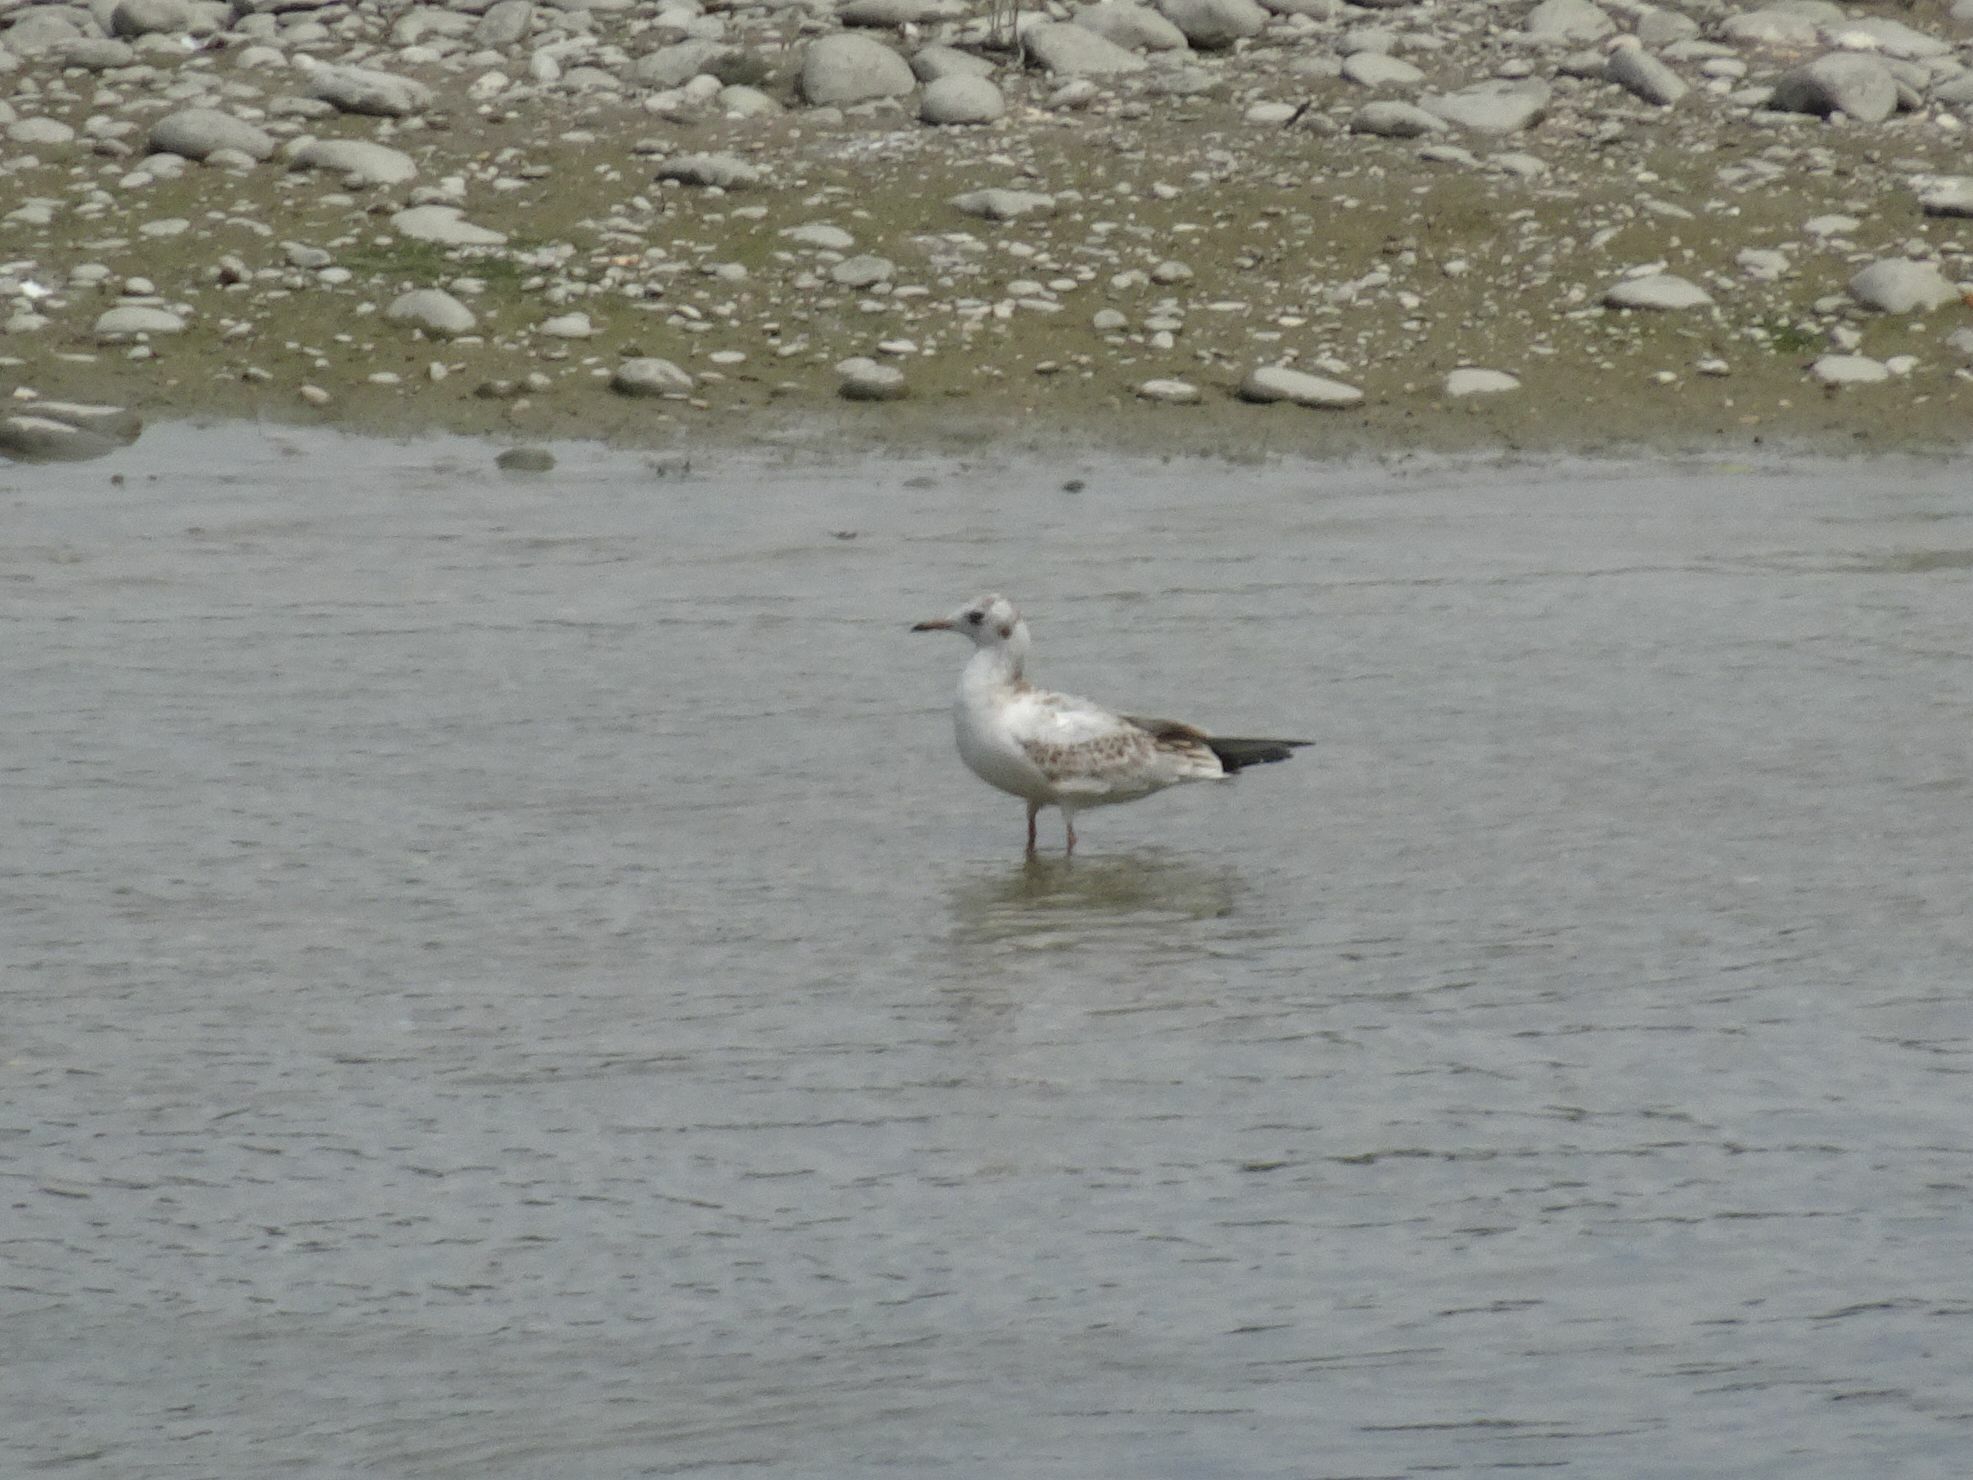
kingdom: Animalia
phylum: Chordata
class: Aves
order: Charadriiformes
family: Laridae
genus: Chroicocephalus
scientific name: Chroicocephalus ridibundus
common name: Black-headed gull
